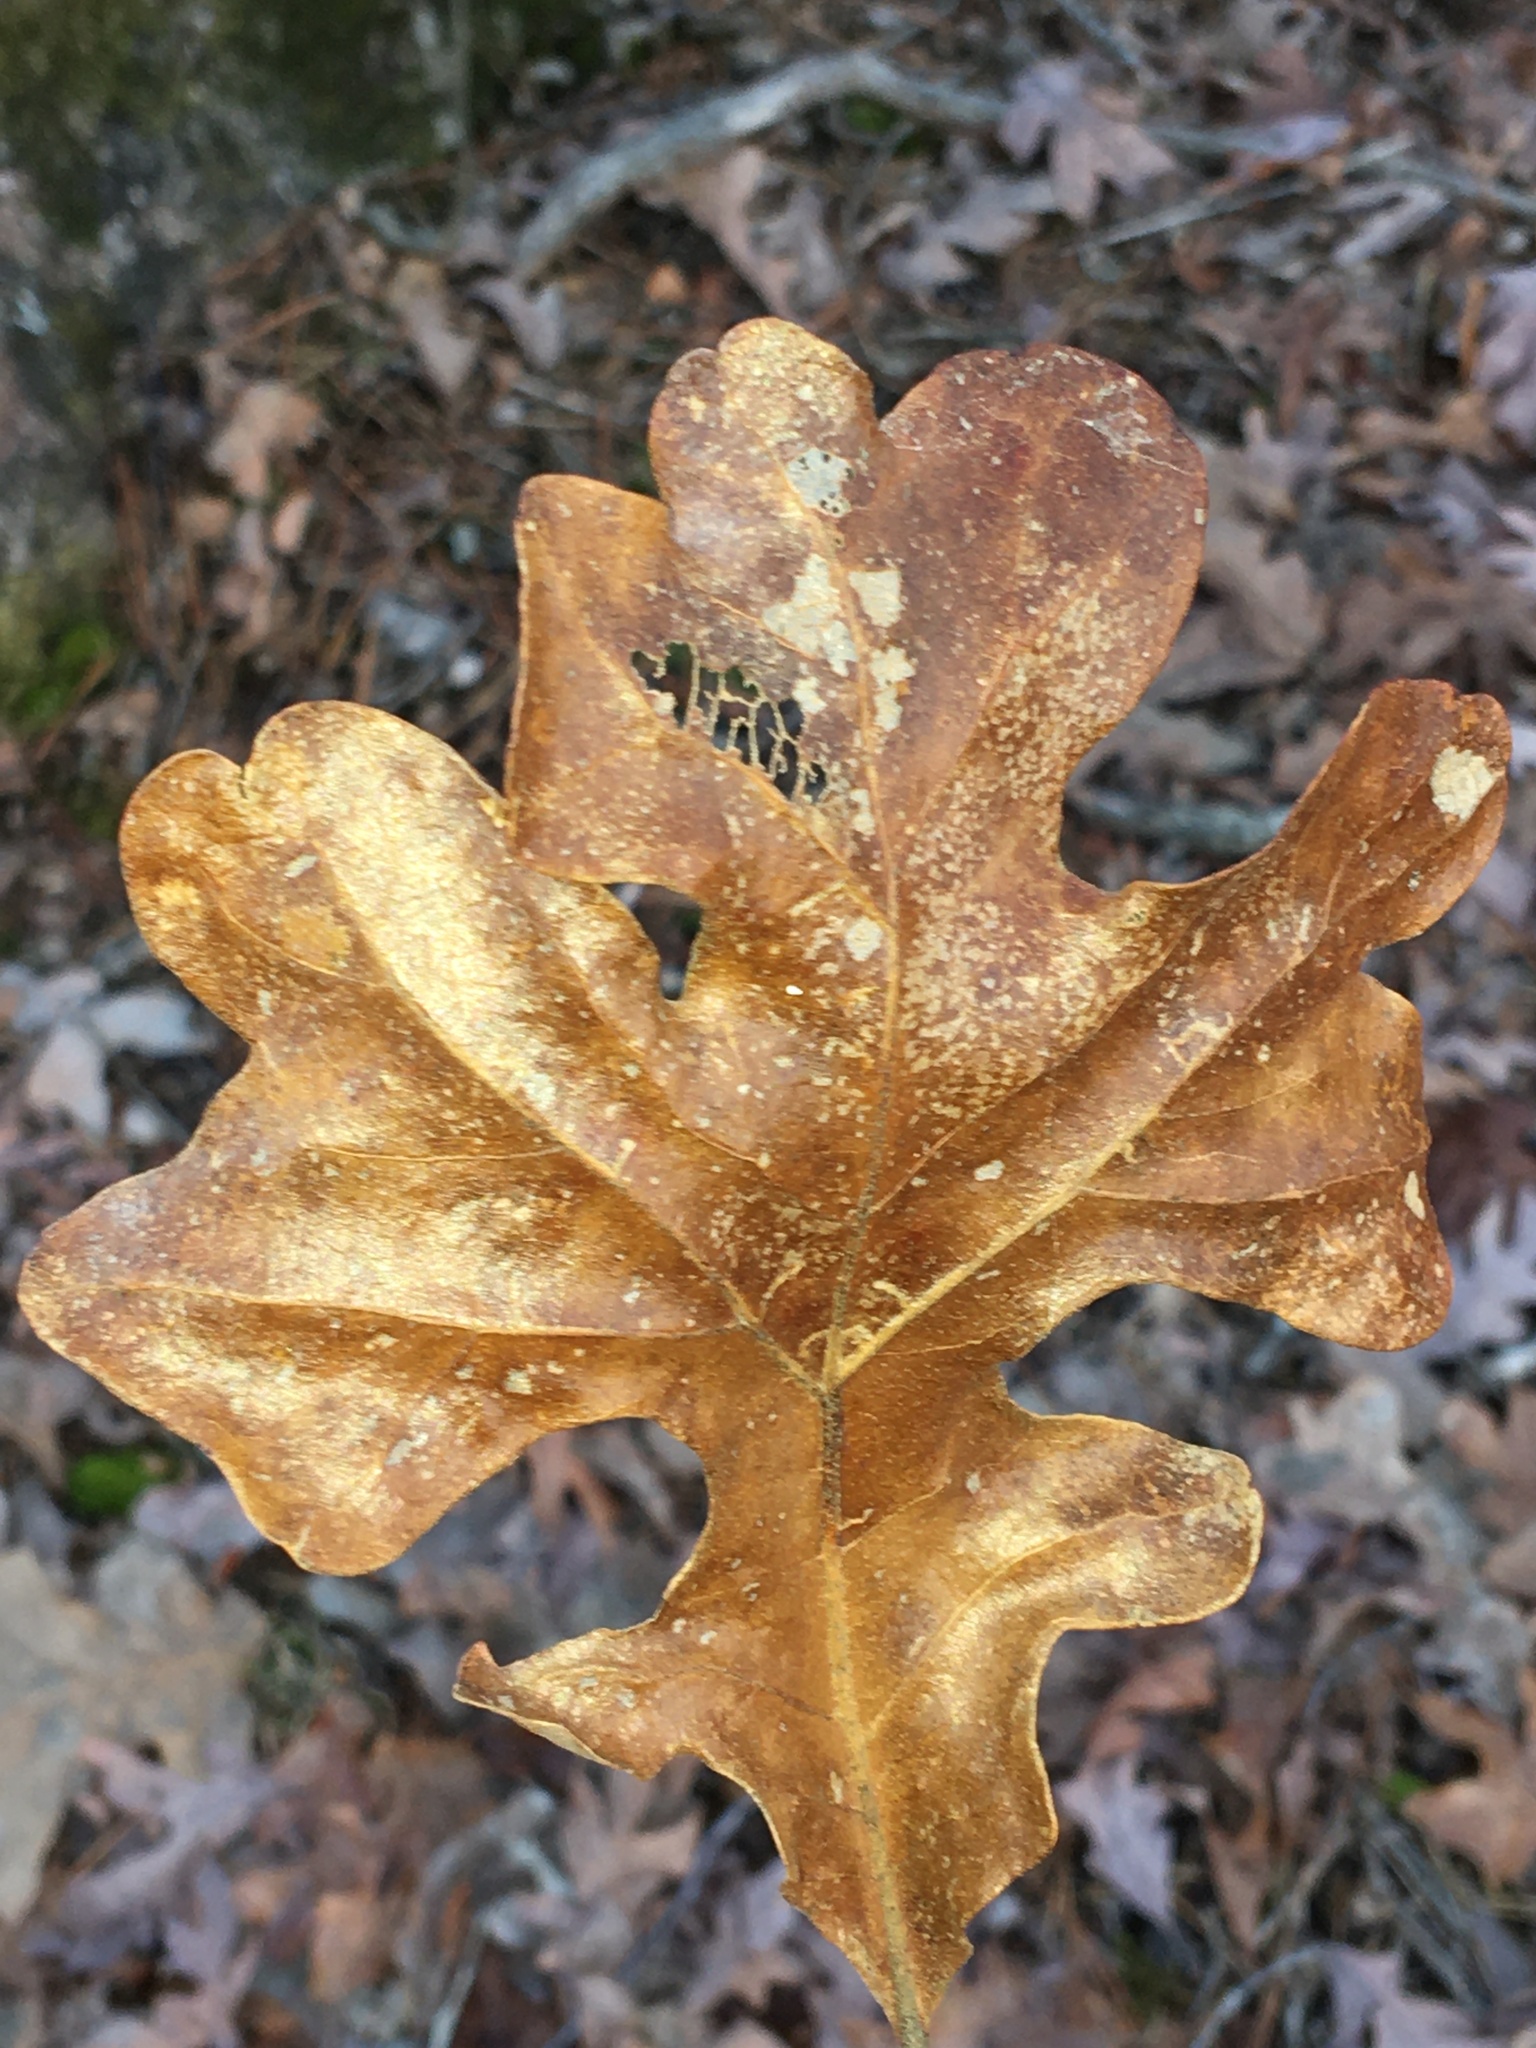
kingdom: Plantae
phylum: Tracheophyta
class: Magnoliopsida
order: Fagales
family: Fagaceae
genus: Quercus
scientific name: Quercus stellata
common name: Post oak
